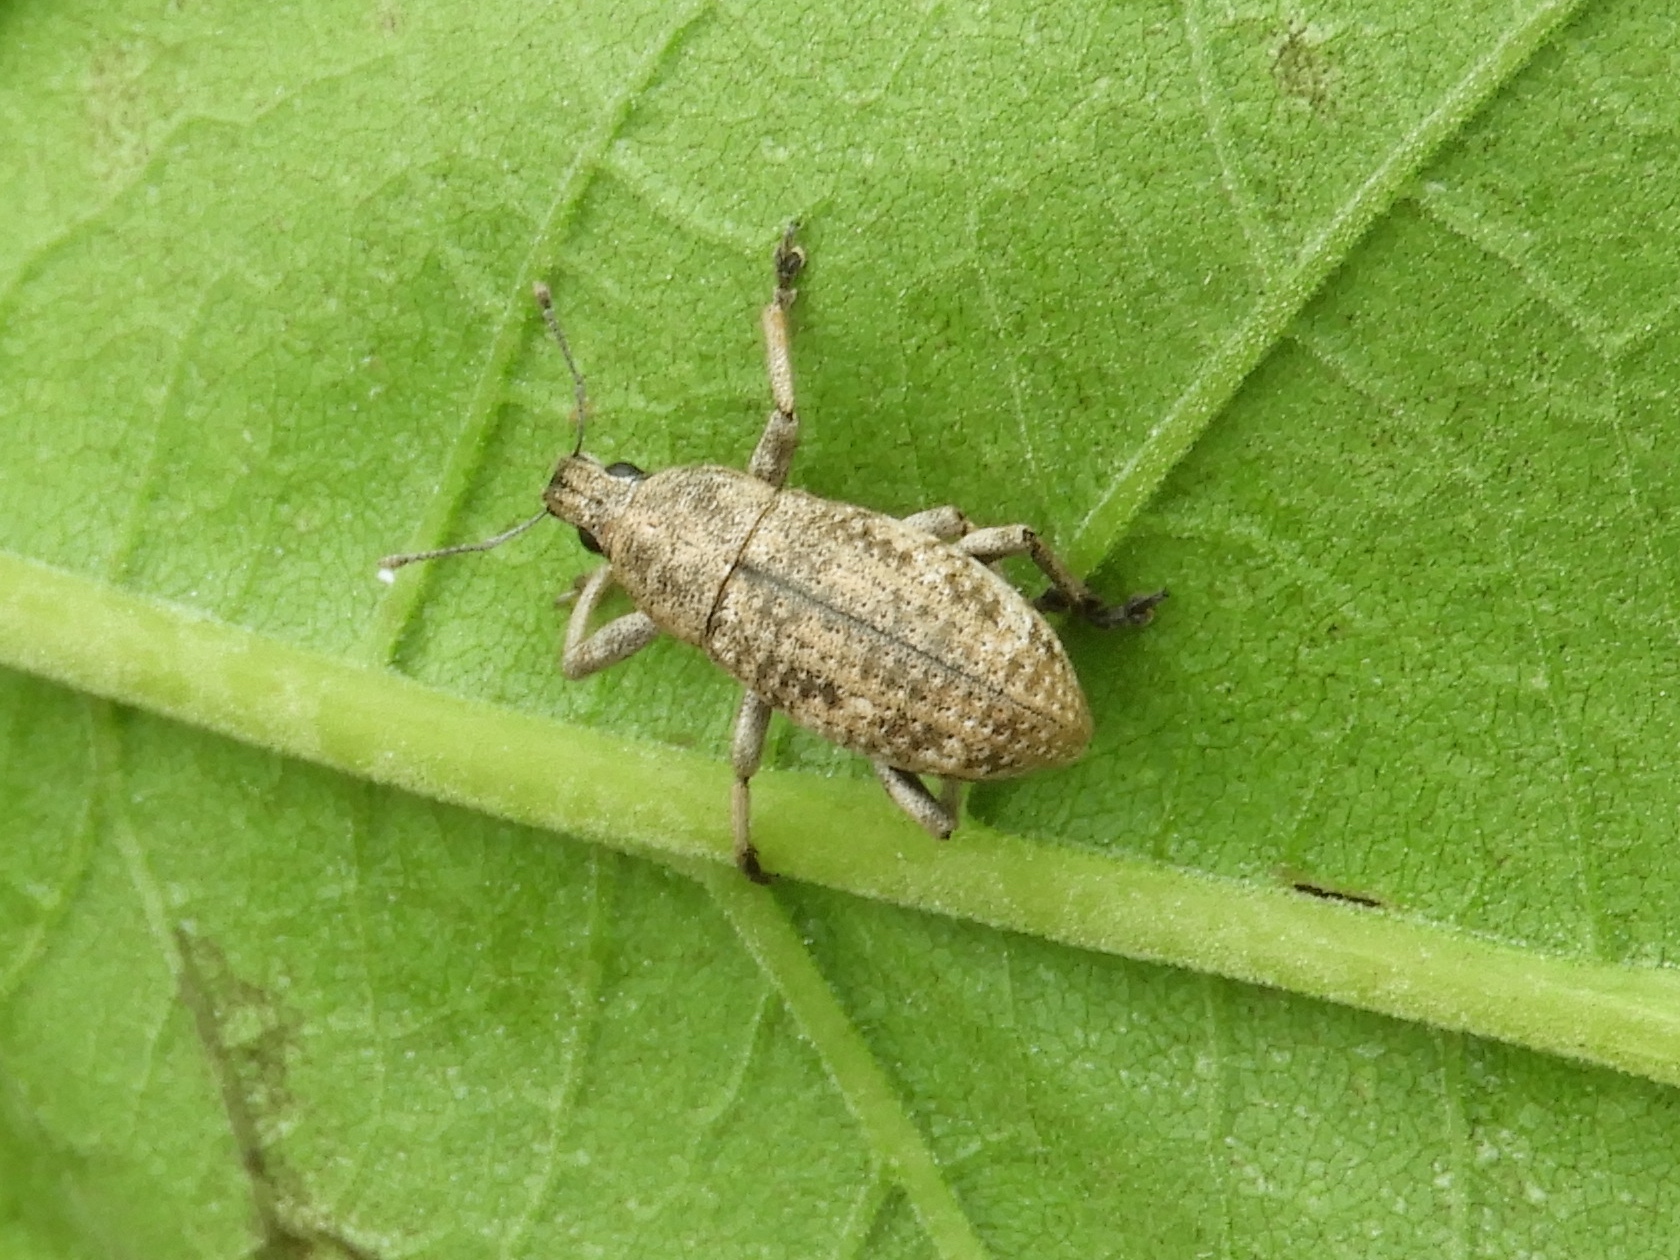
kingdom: Animalia
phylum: Arthropoda
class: Insecta
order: Coleoptera
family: Curculionidae
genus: Epicaerus
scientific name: Epicaerus
